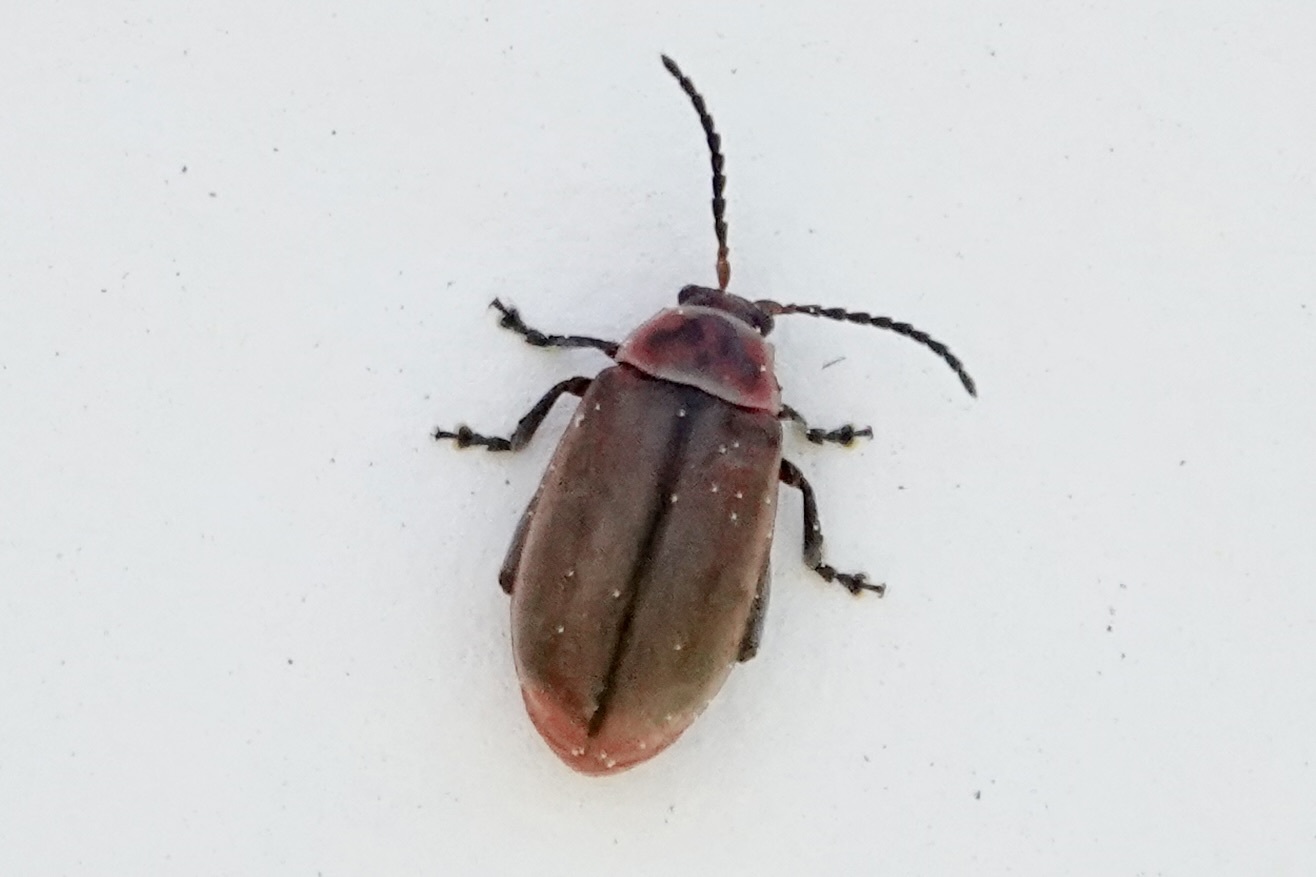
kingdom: Animalia
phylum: Arthropoda
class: Insecta
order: Coleoptera
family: Chrysomelidae
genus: Kuschelina
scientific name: Kuschelina fimbriata
